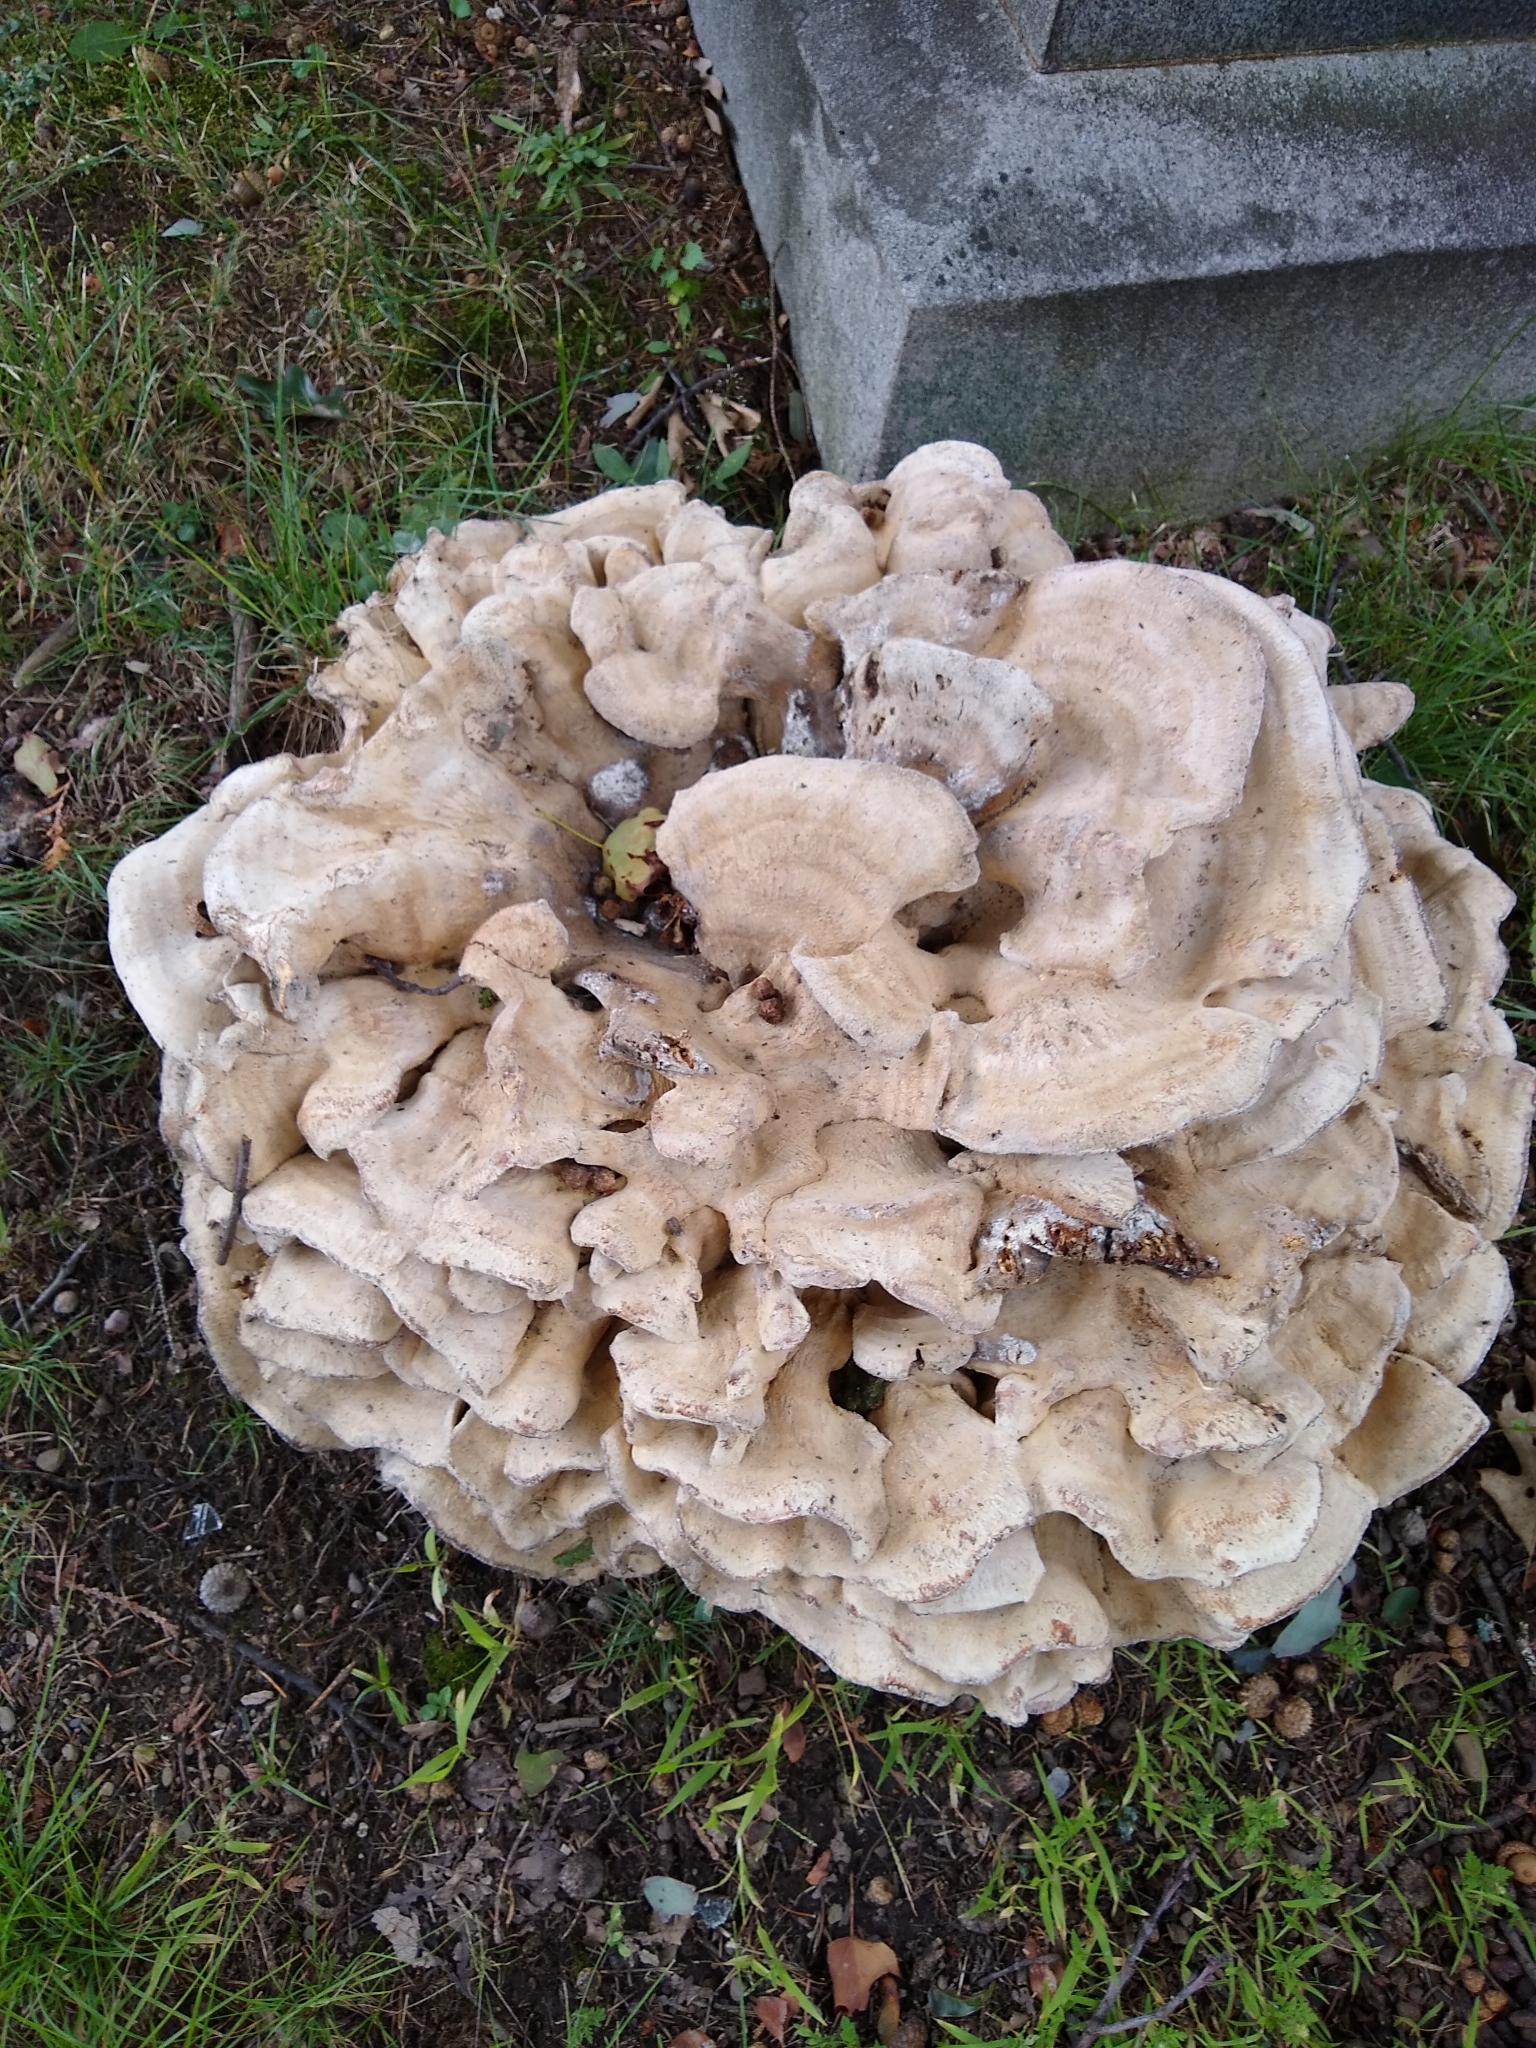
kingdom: Fungi
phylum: Basidiomycota
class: Agaricomycetes
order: Polyporales
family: Meripilaceae
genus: Meripilus
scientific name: Meripilus sumstinei
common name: Black-staining polypore
